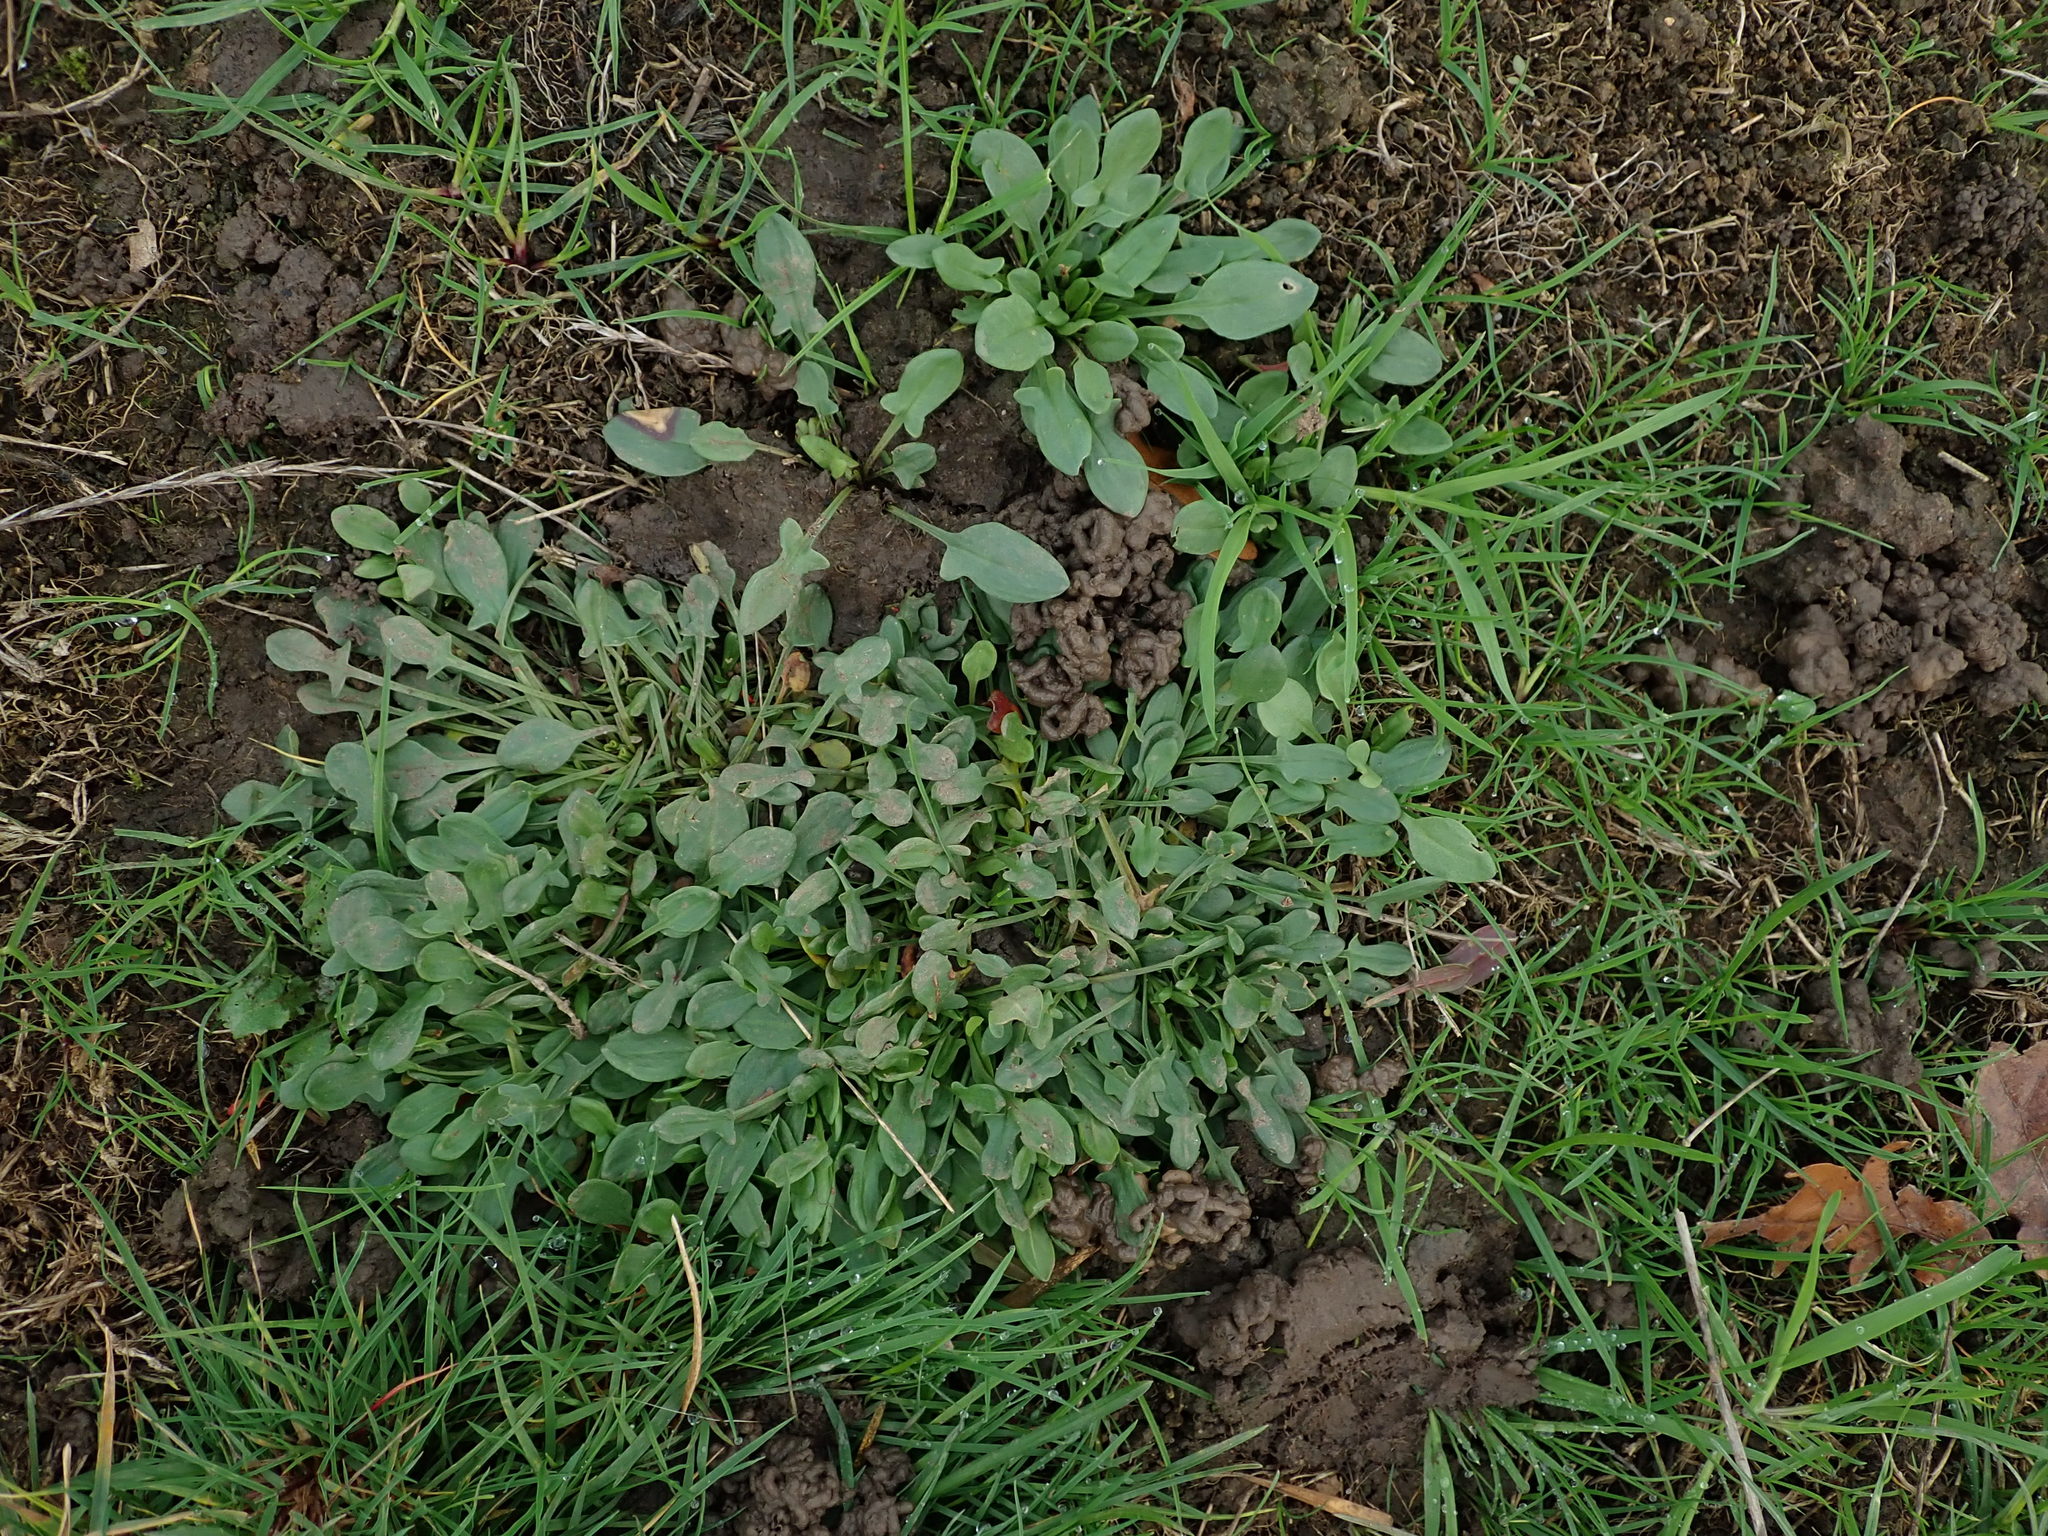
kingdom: Plantae
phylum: Tracheophyta
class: Magnoliopsida
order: Caryophyllales
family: Polygonaceae
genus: Rumex
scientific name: Rumex acetosella
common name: Common sheep sorrel
